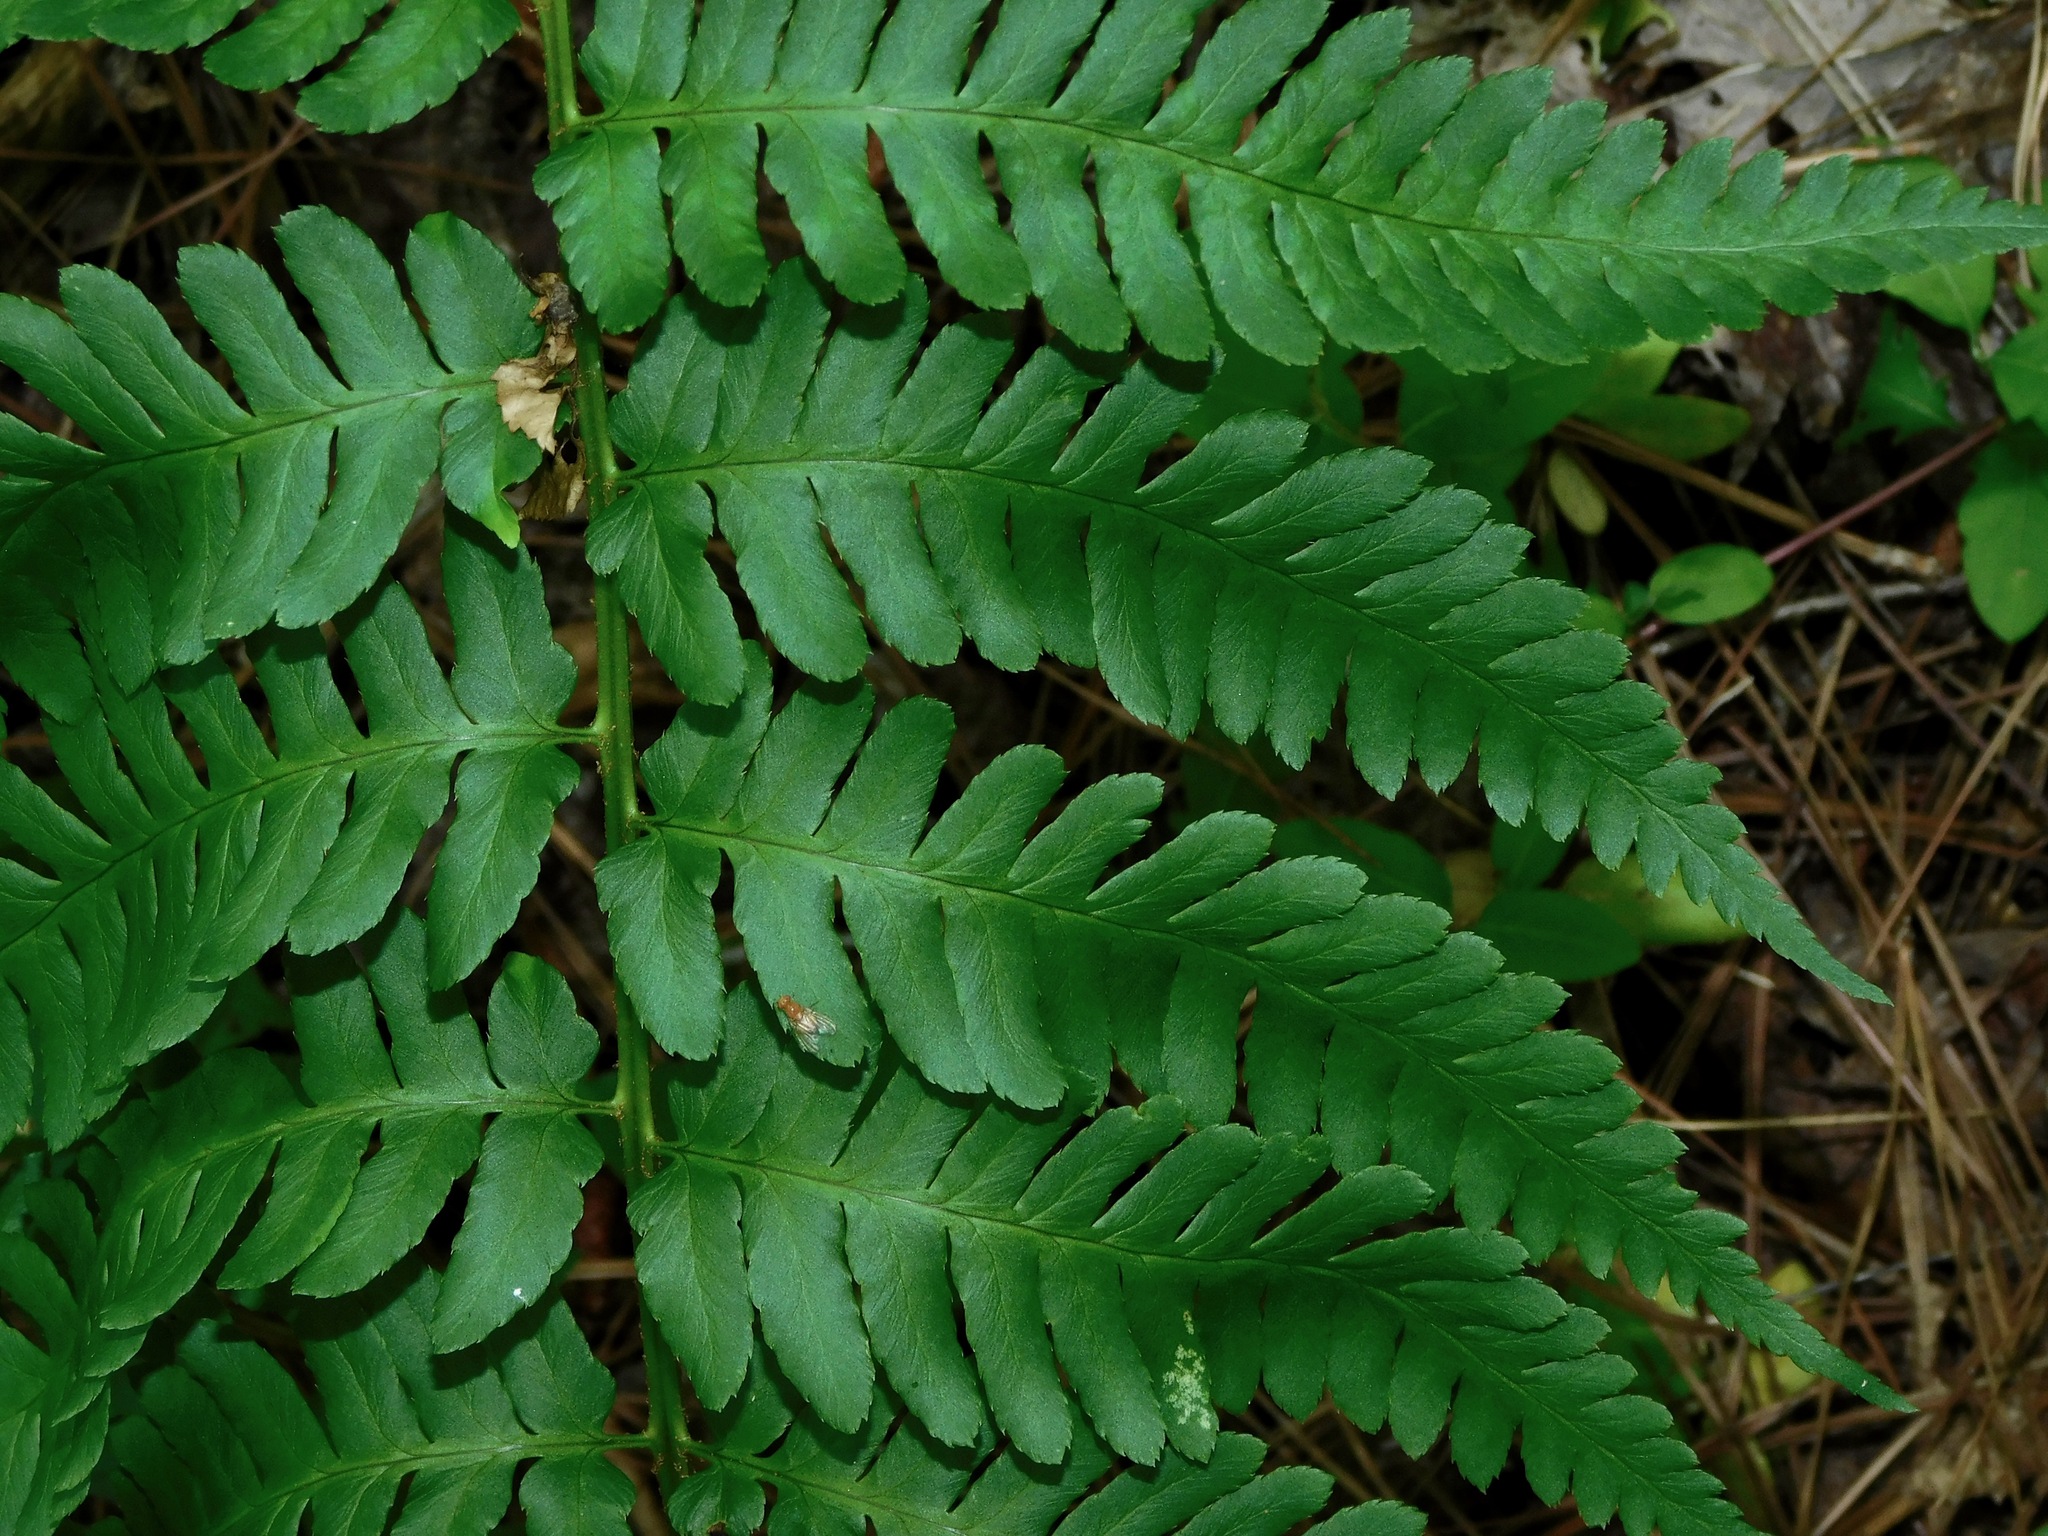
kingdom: Plantae
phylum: Tracheophyta
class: Polypodiopsida
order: Polypodiales
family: Dryopteridaceae
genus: Dryopteris
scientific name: Dryopteris celsa
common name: Log fern
